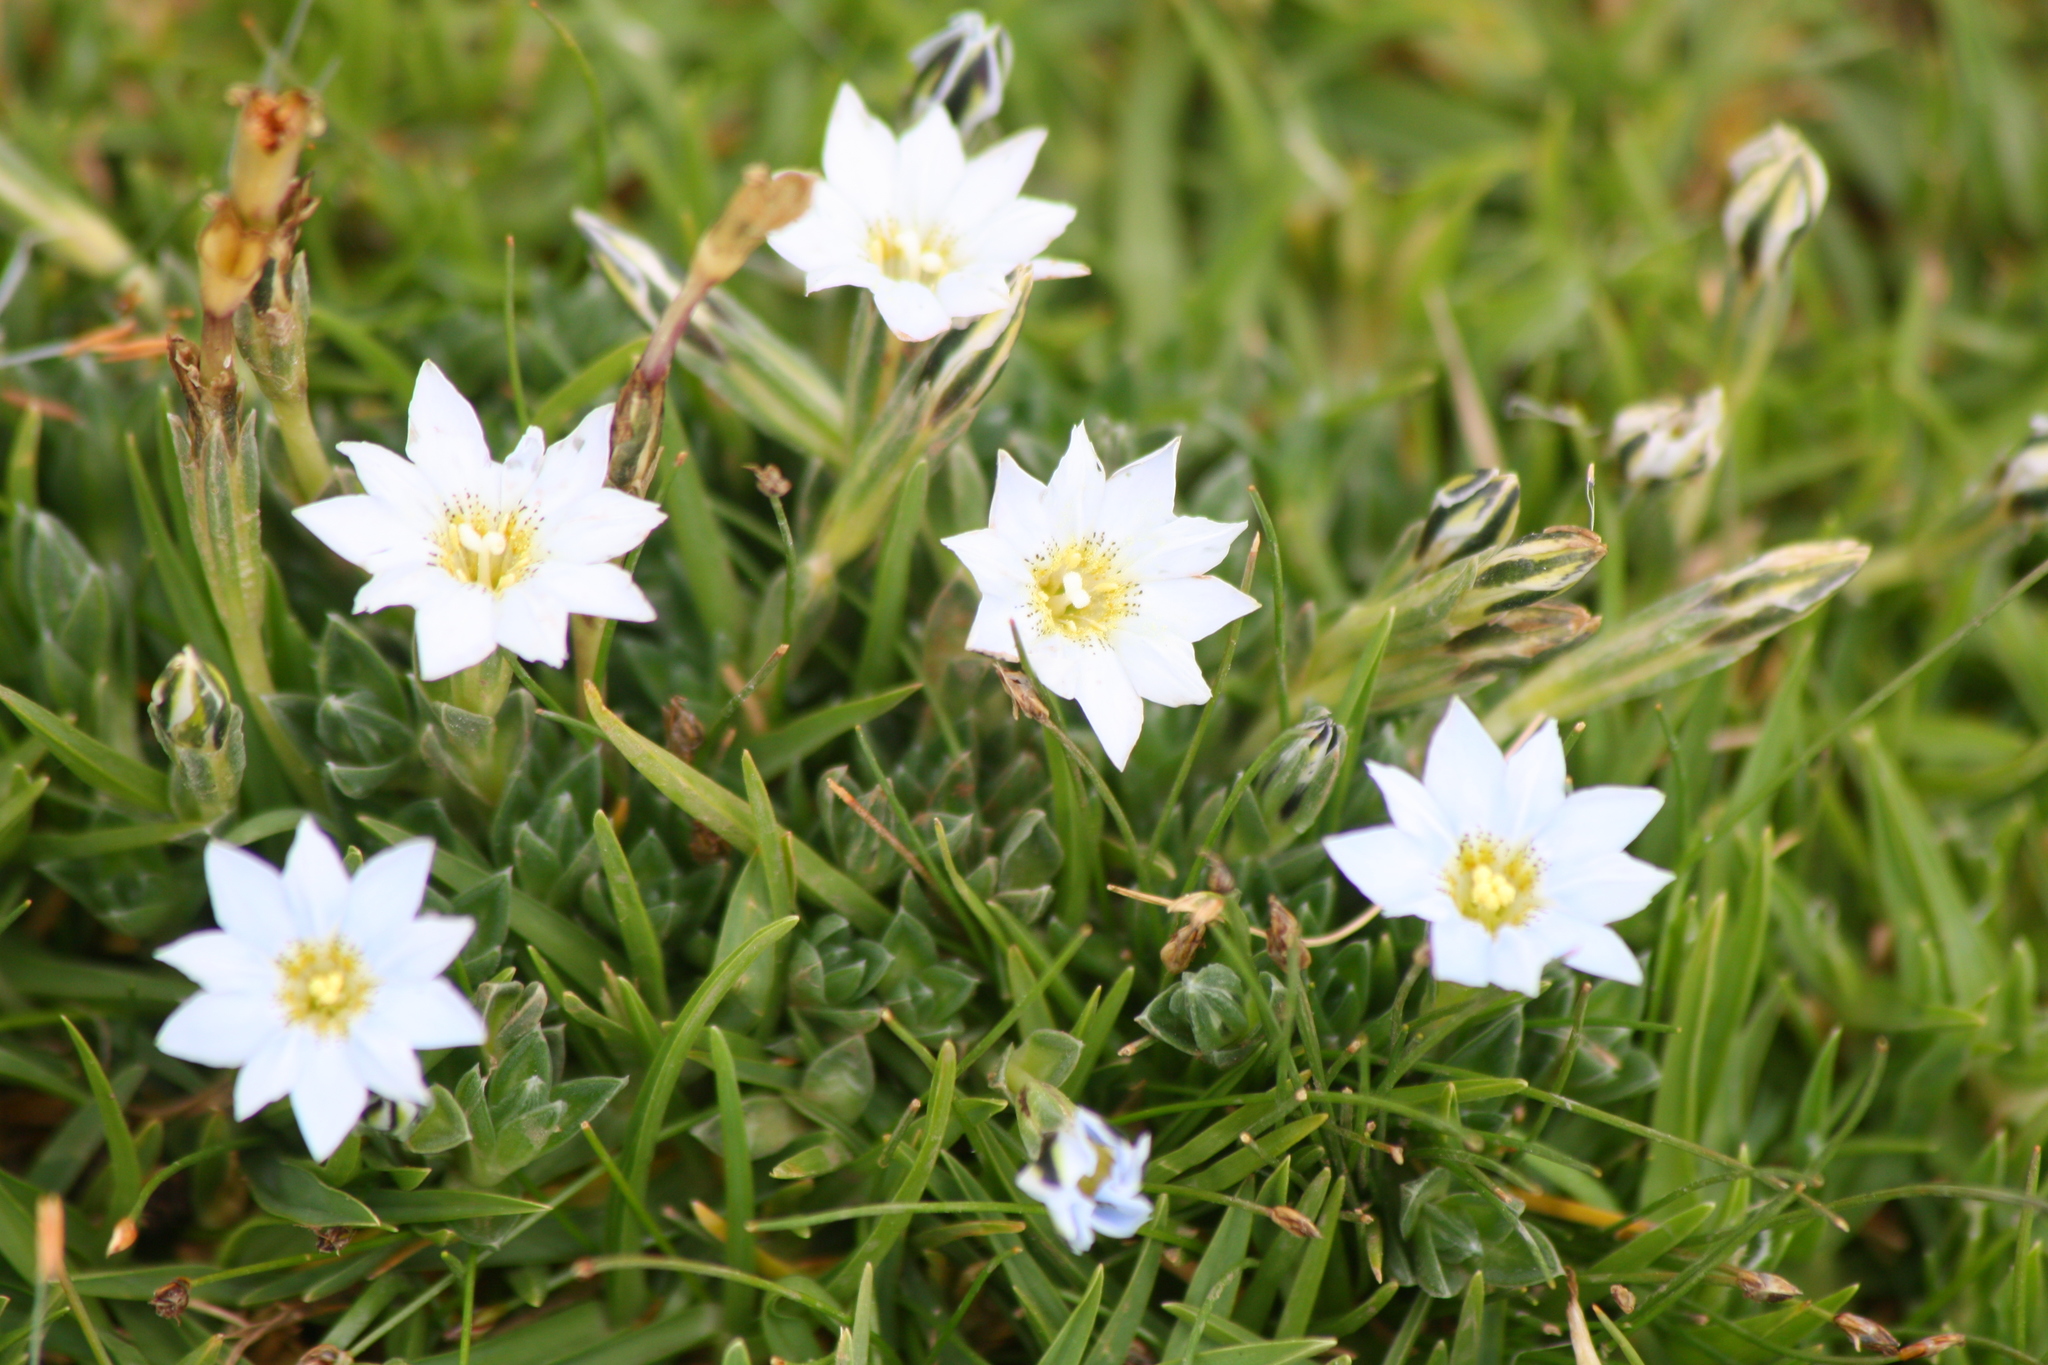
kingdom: Plantae
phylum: Tracheophyta
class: Magnoliopsida
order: Gentianales
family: Gentianaceae
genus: Gentiana
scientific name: Gentiana sedifolia
